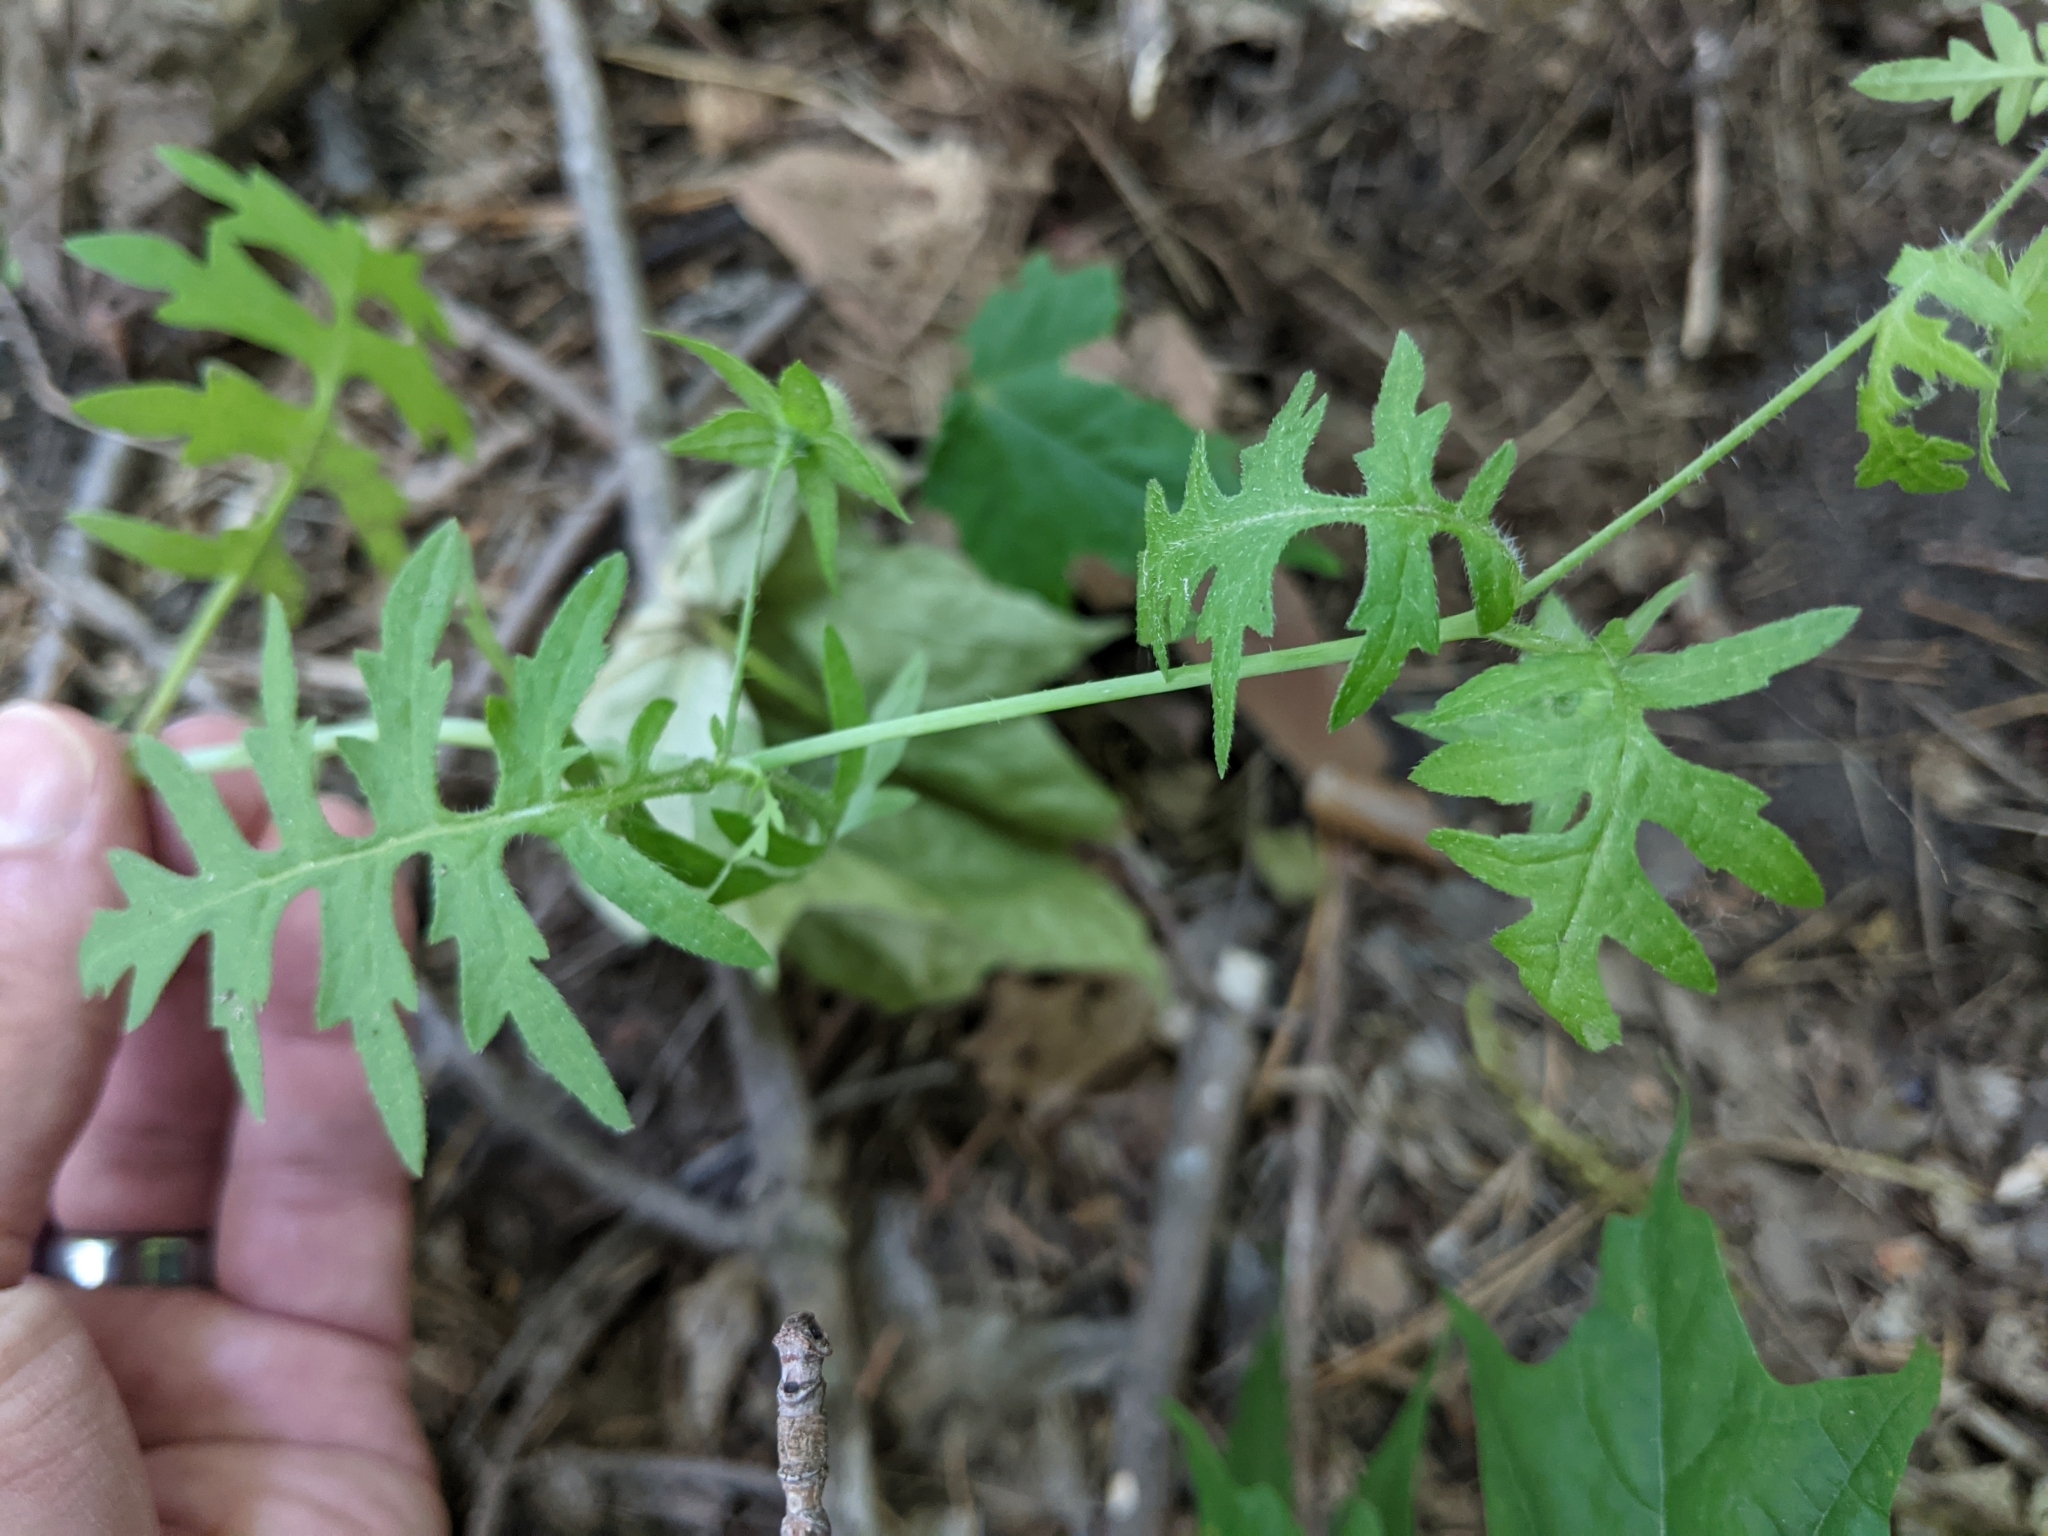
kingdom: Plantae
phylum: Tracheophyta
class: Magnoliopsida
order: Boraginales
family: Hydrophyllaceae
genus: Ellisia
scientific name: Ellisia nyctelea
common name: Aunt lucy
